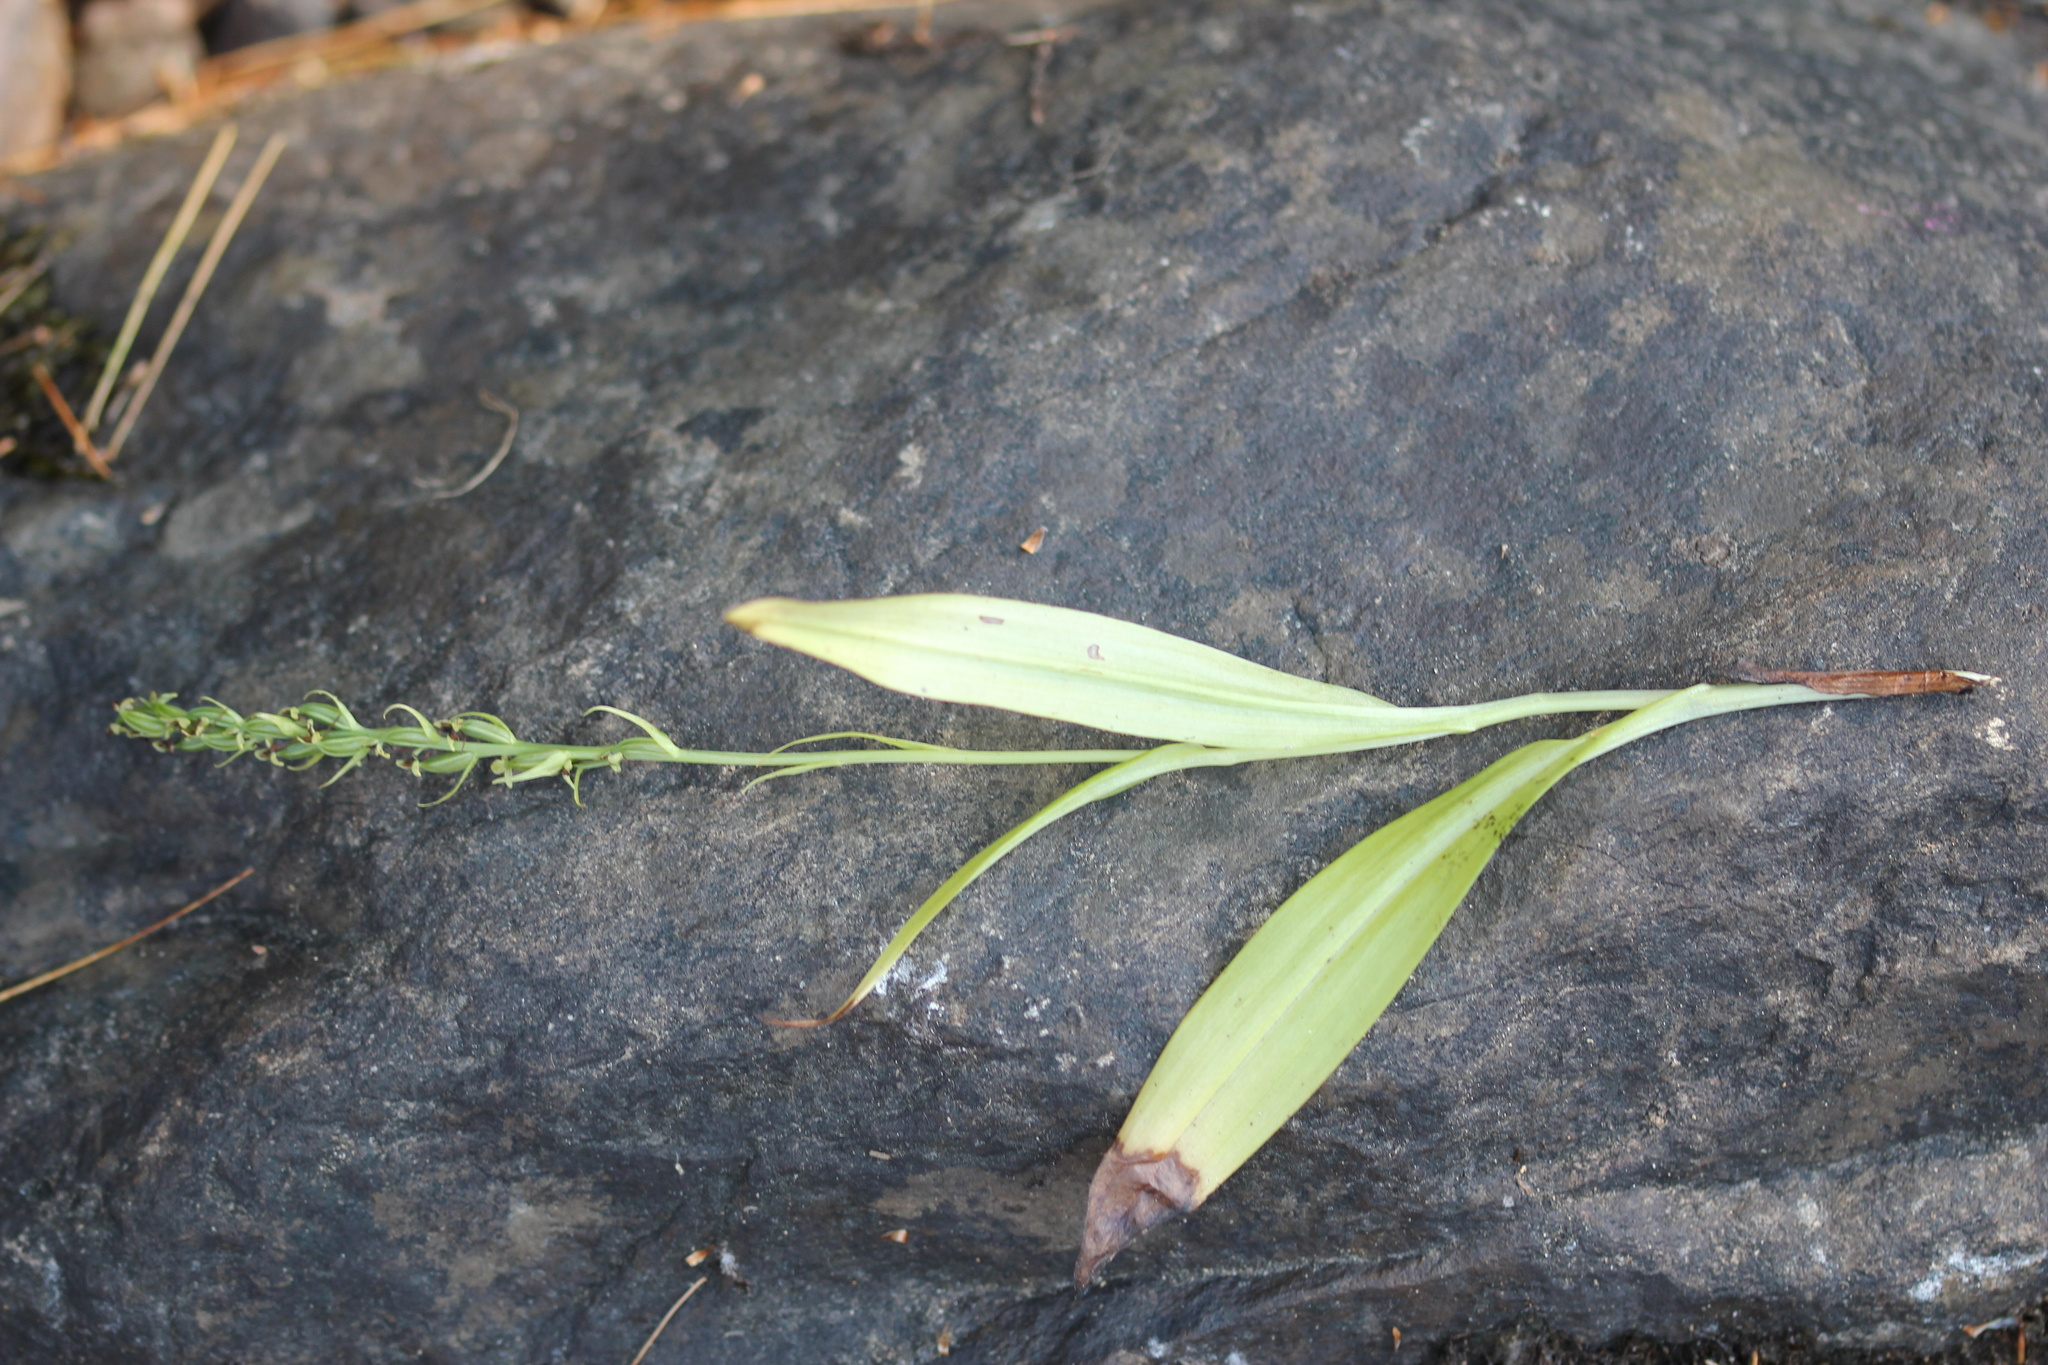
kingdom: Plantae
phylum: Tracheophyta
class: Liliopsida
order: Asparagales
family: Orchidaceae
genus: Platanthera
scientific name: Platanthera flava
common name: Gypsy-spikes
